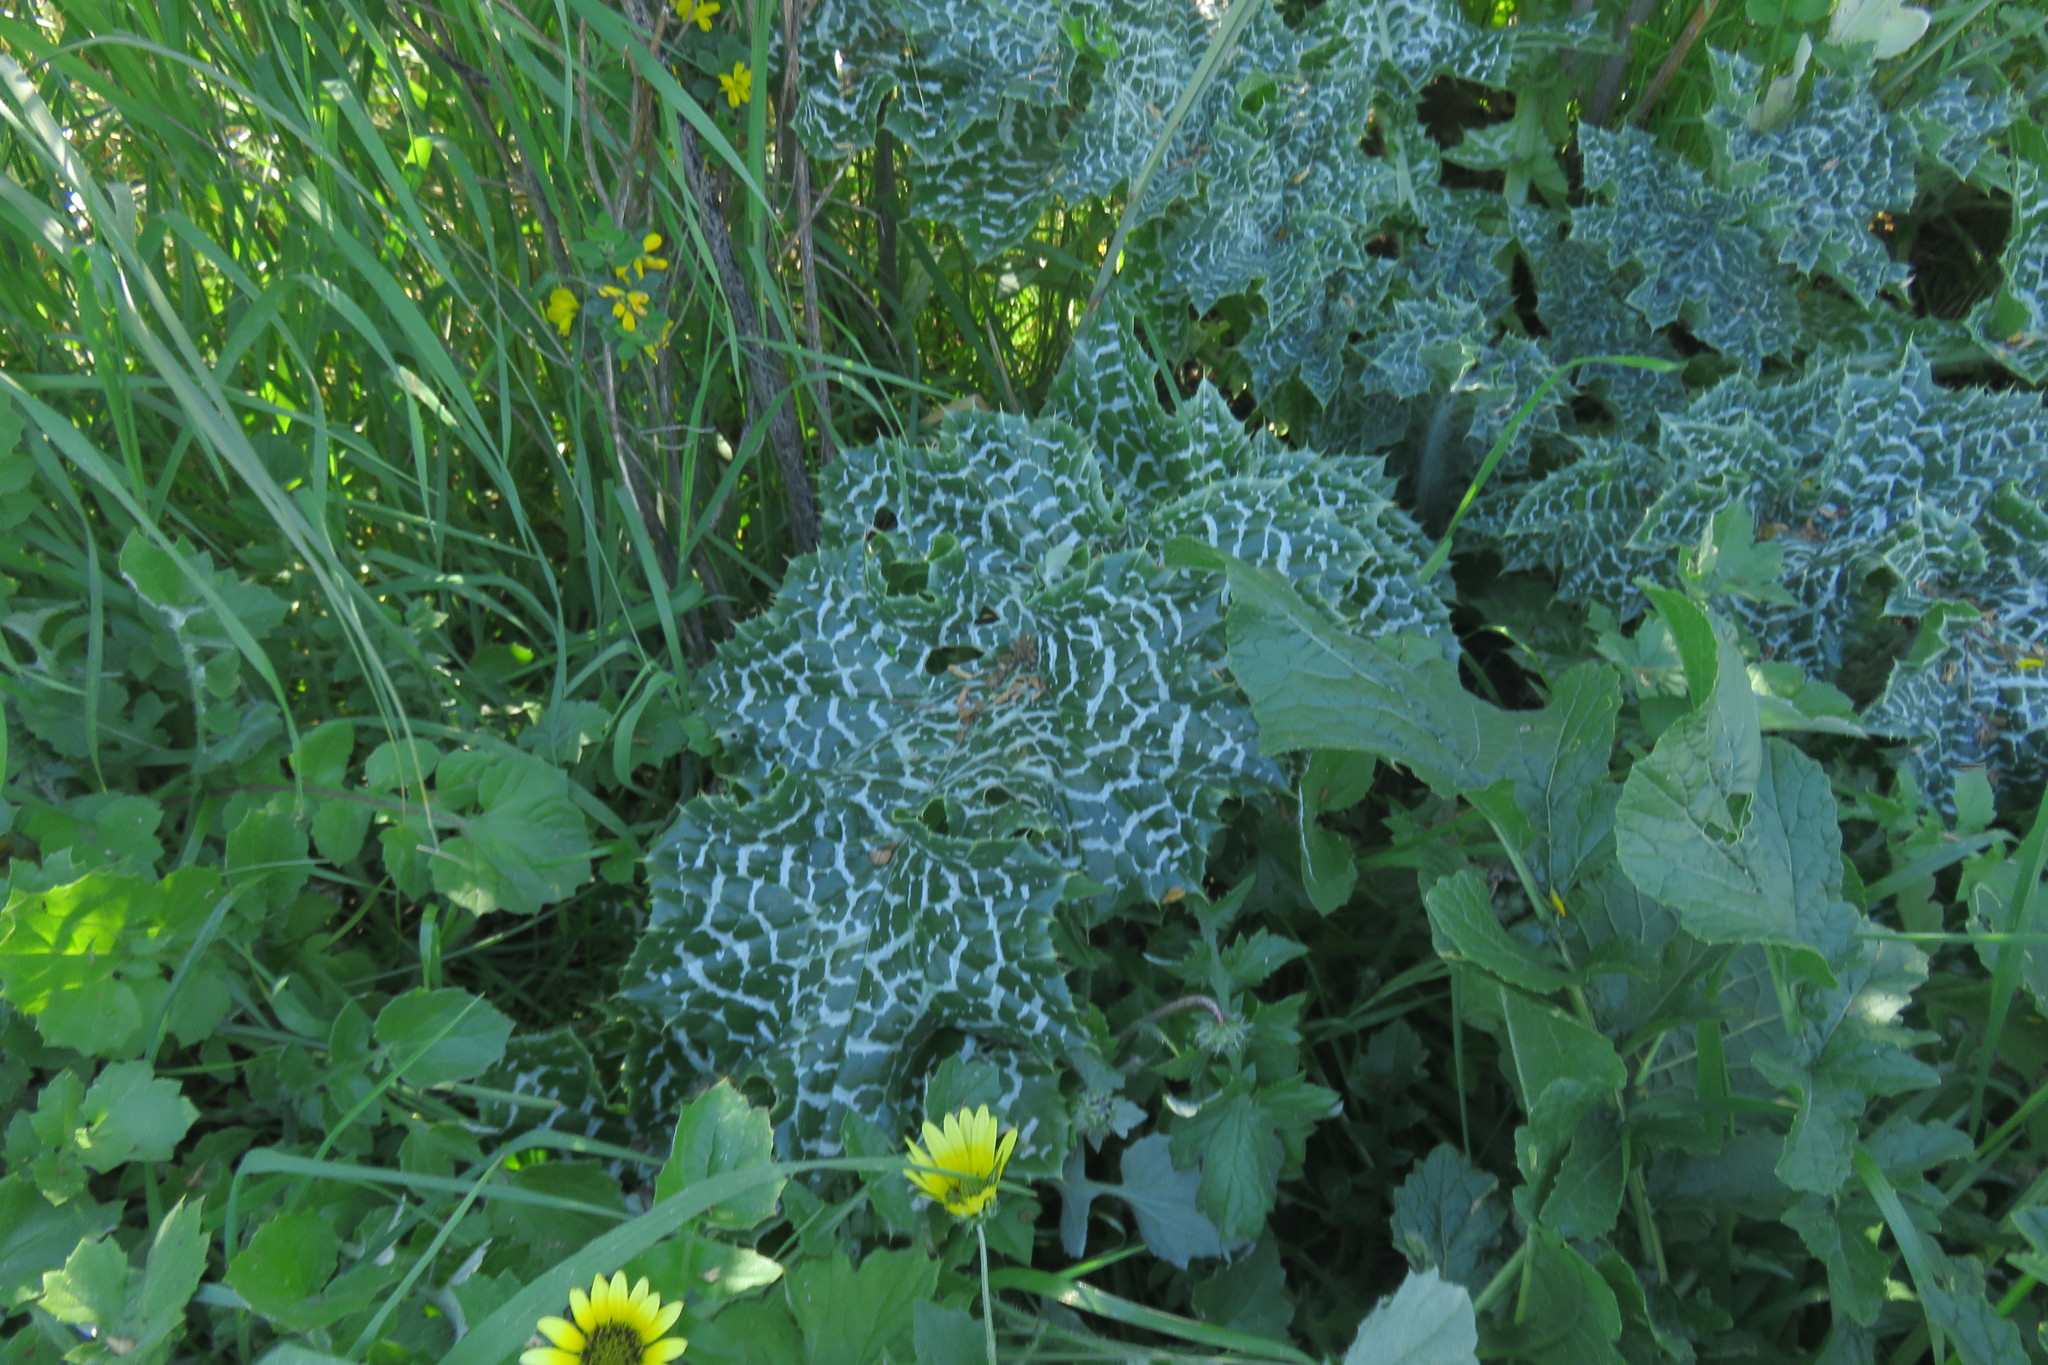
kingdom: Plantae
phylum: Tracheophyta
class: Magnoliopsida
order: Asterales
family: Asteraceae
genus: Silybum
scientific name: Silybum marianum
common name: Milk thistle
